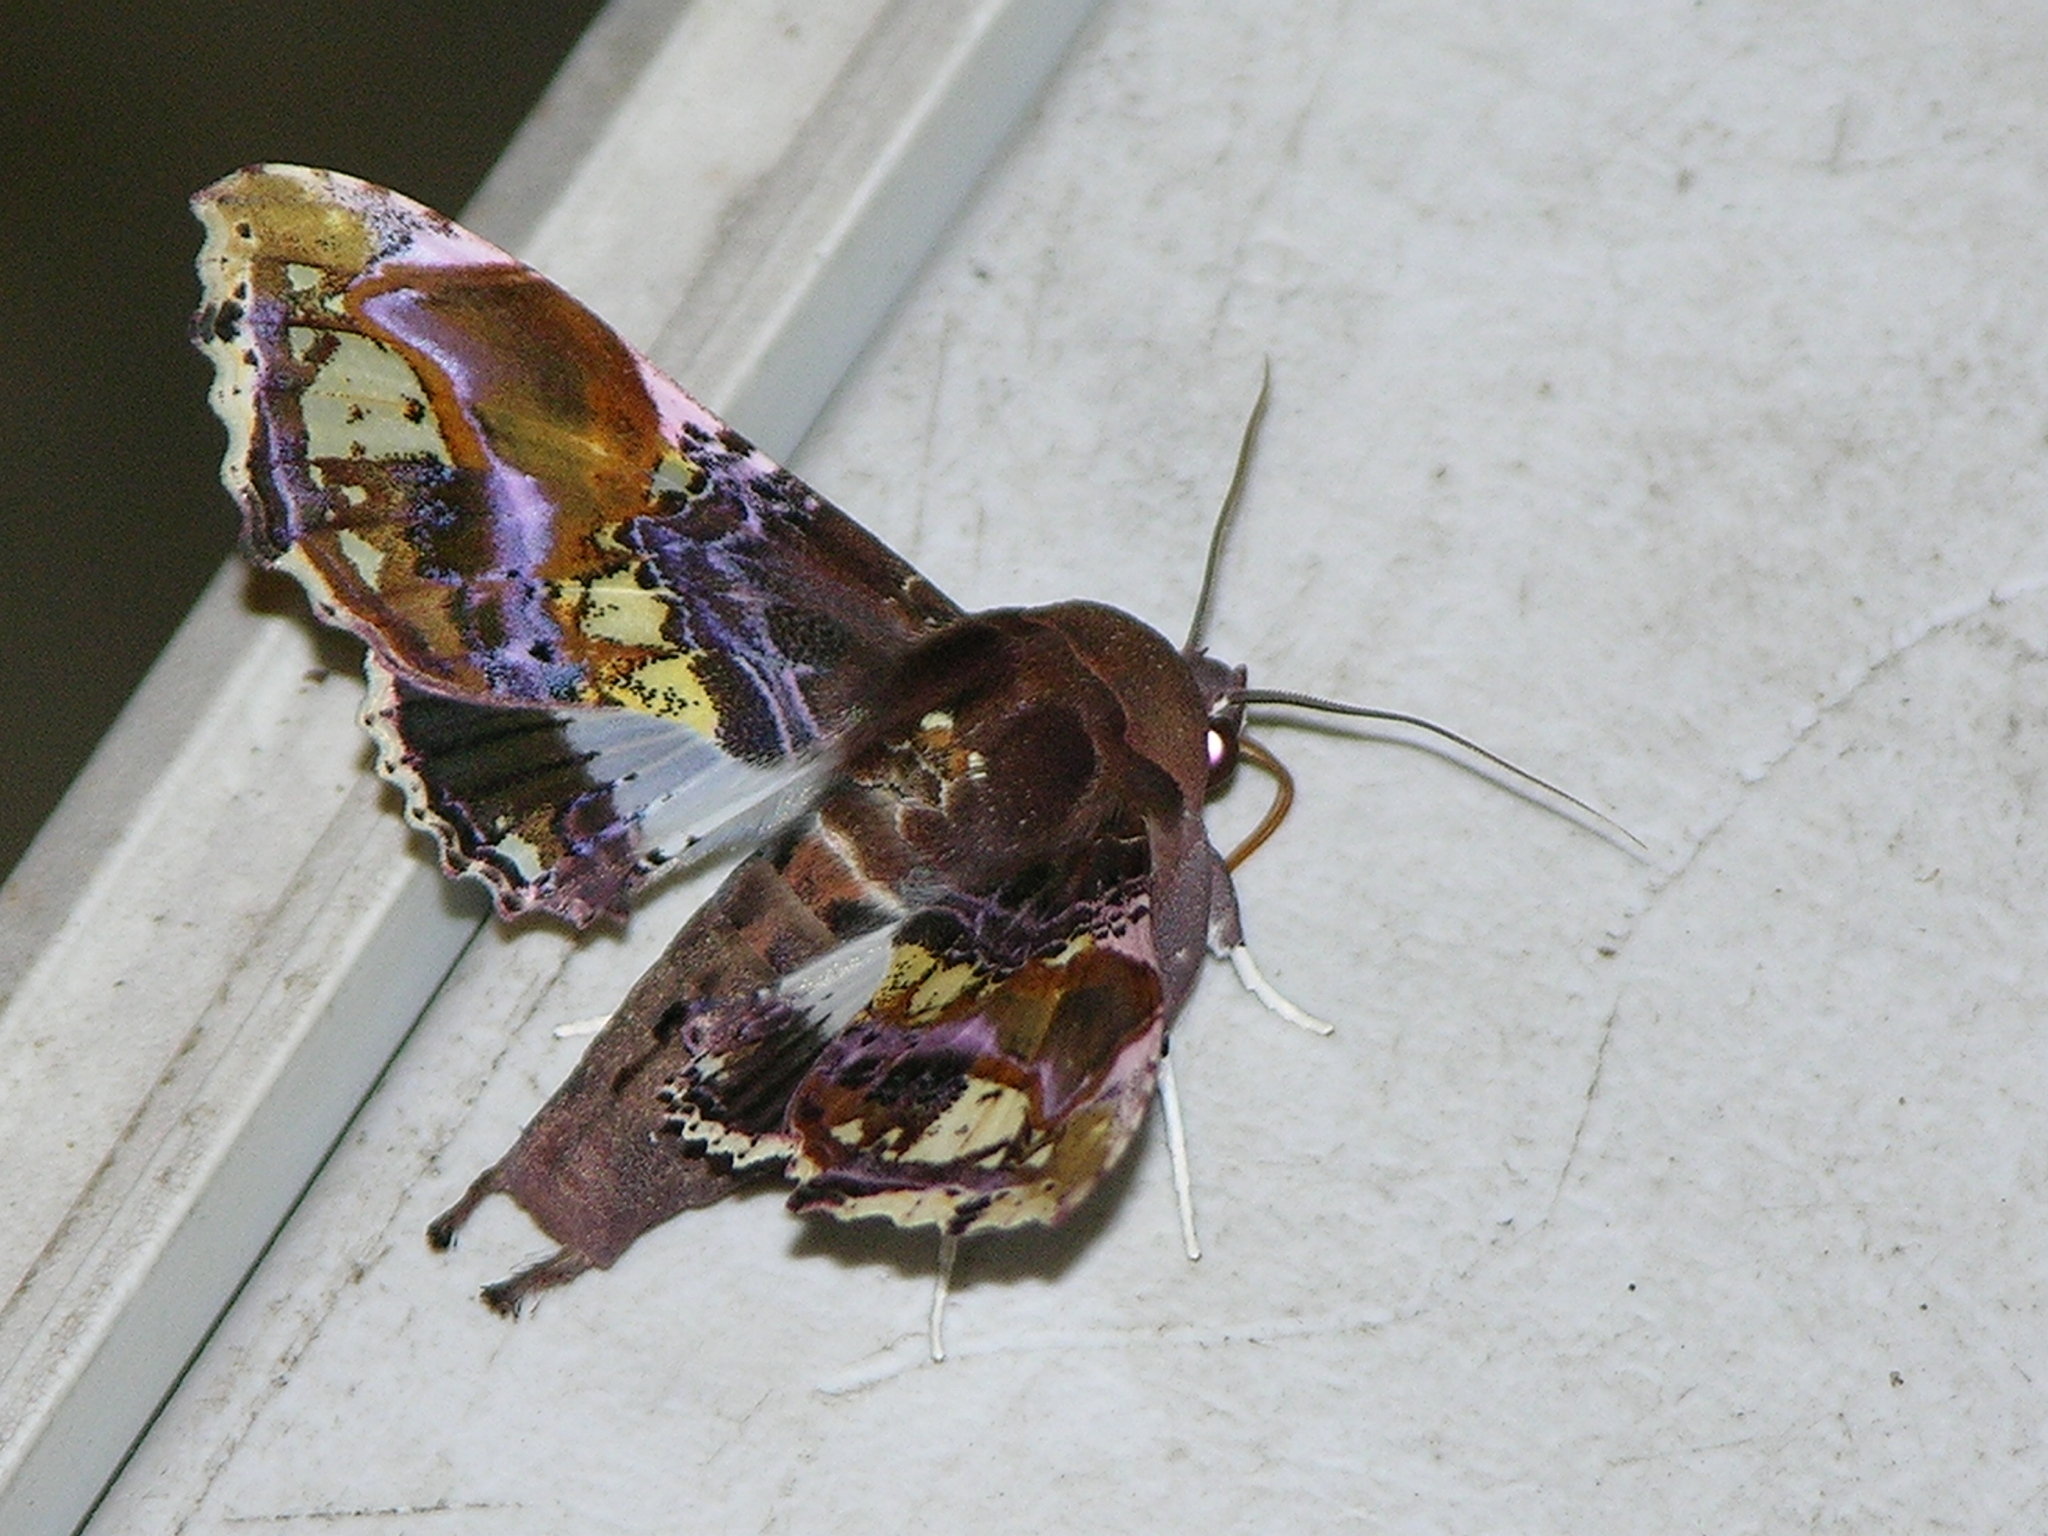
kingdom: Animalia
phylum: Arthropoda
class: Insecta
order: Lepidoptera
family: Euteliidae
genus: Caligatus
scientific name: Caligatus angasii
